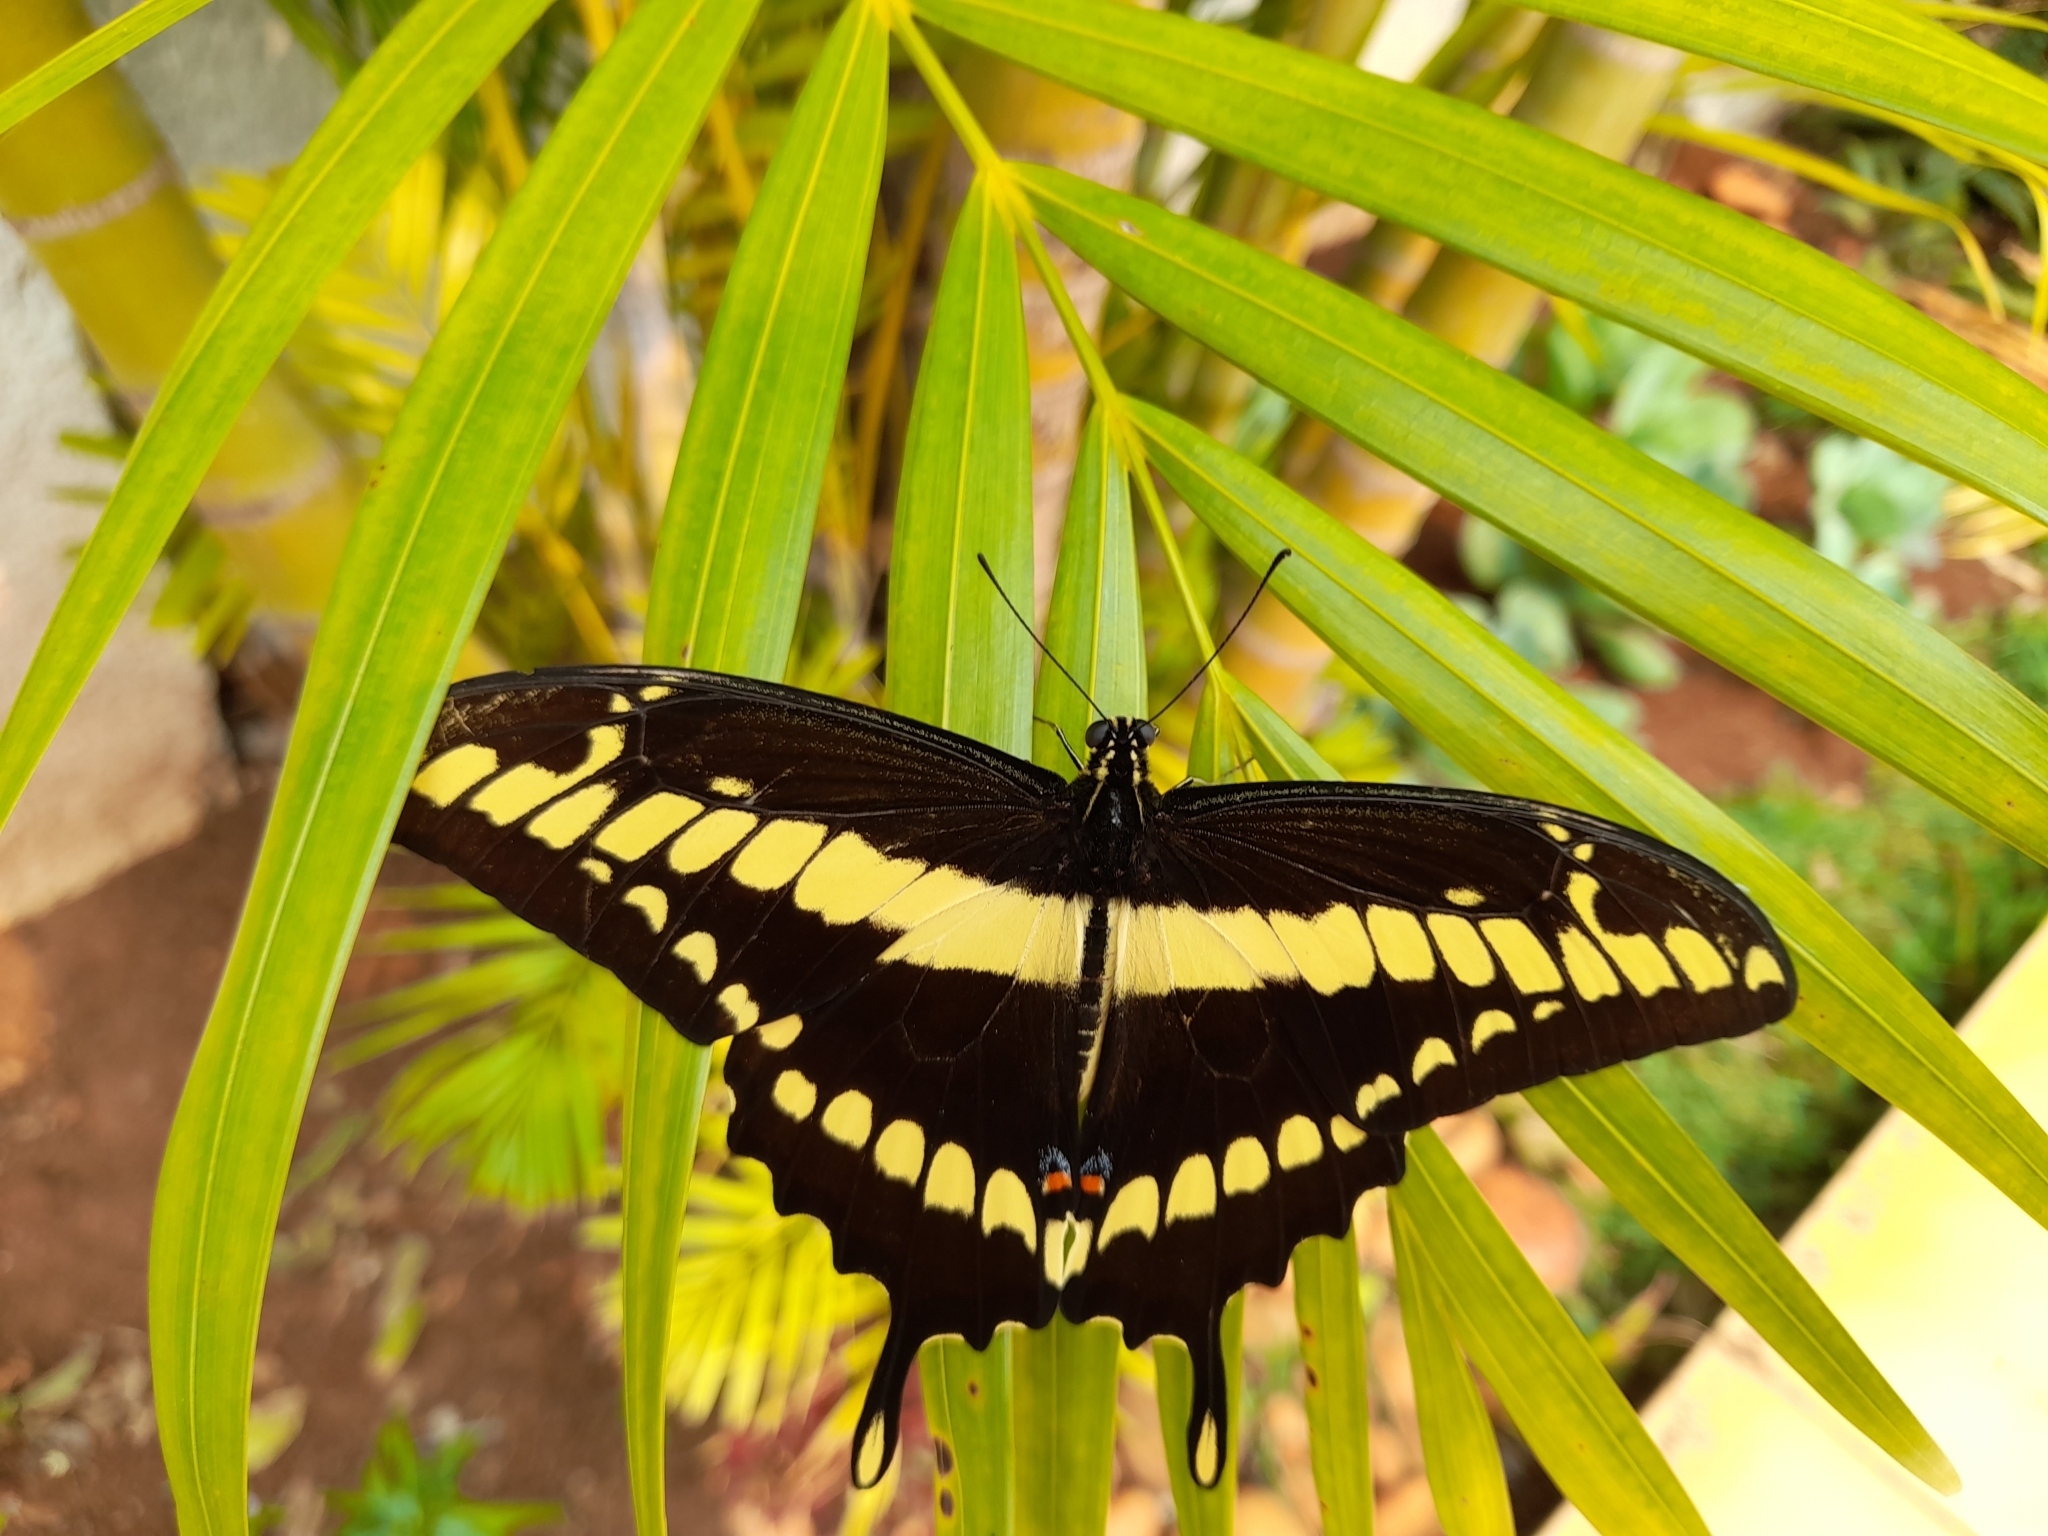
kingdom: Animalia
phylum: Arthropoda
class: Insecta
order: Lepidoptera
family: Papilionidae
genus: Papilio
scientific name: Papilio thoas
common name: King swallowtail
